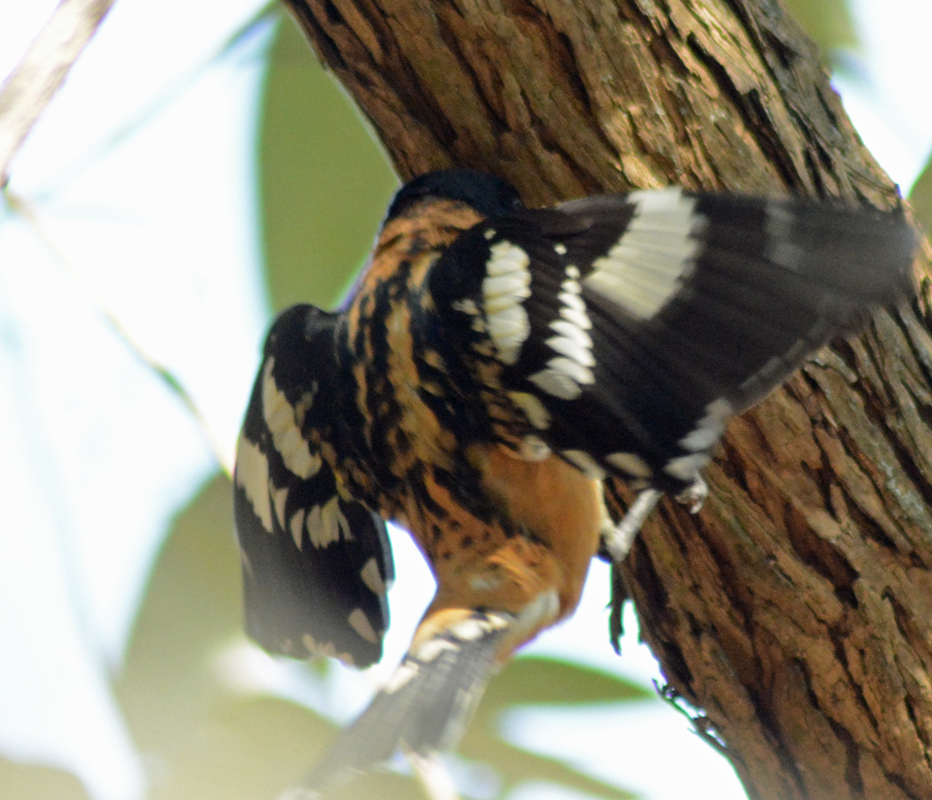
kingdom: Animalia
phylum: Chordata
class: Aves
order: Passeriformes
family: Cardinalidae
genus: Pheucticus
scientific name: Pheucticus melanocephalus
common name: Black-headed grosbeak
